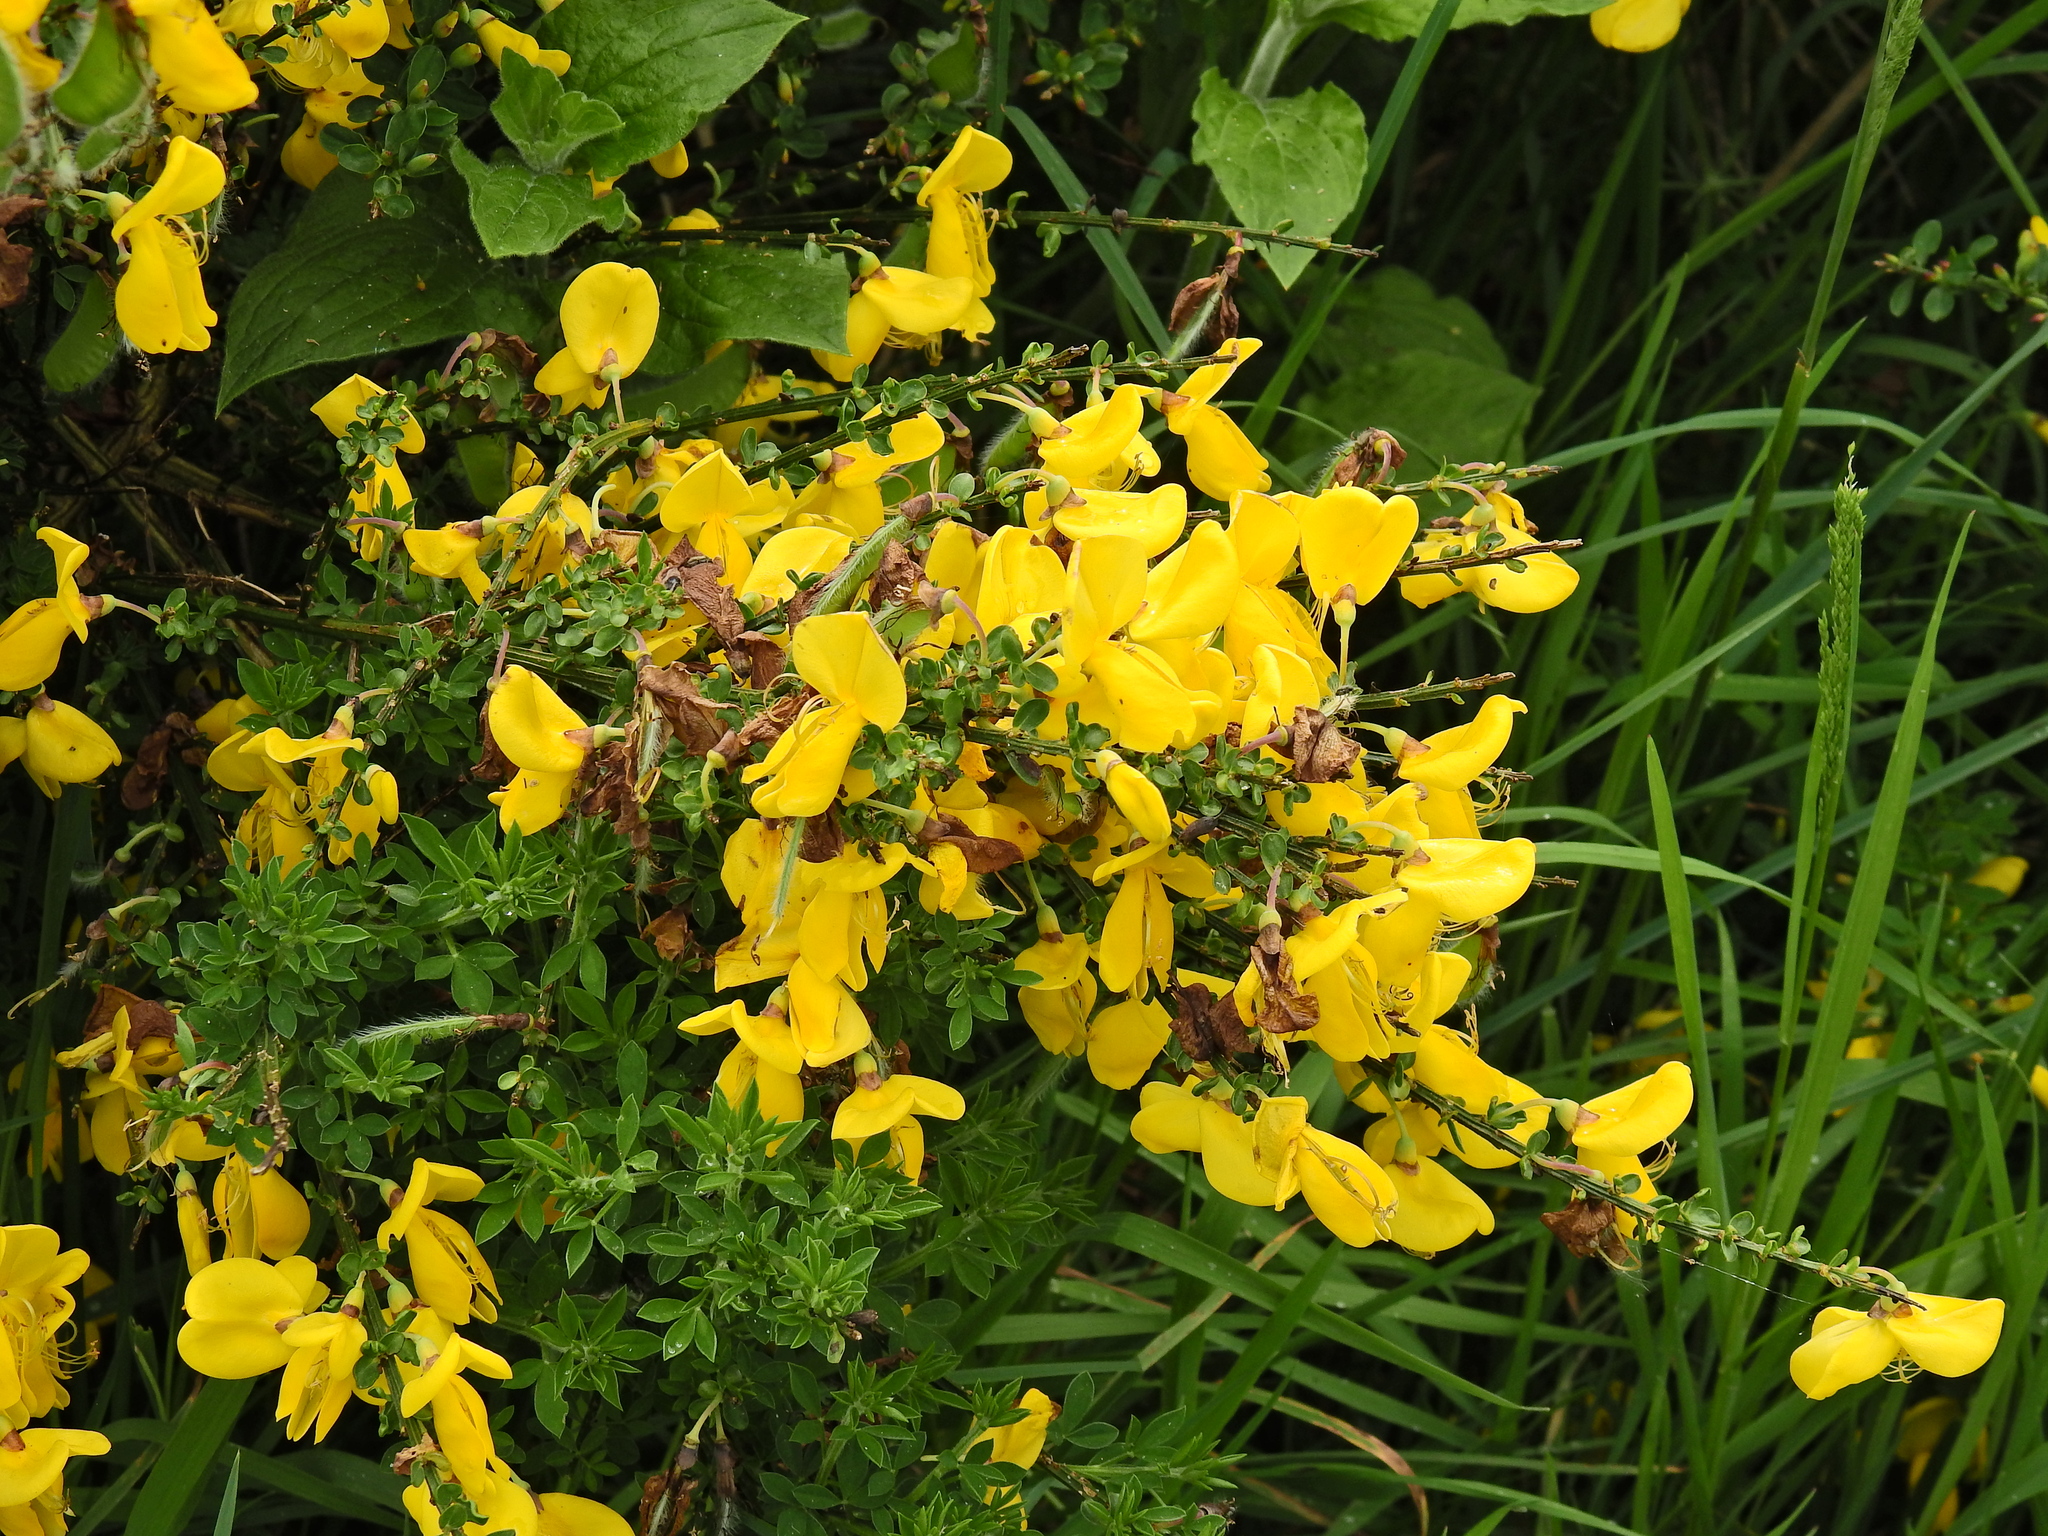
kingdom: Plantae
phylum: Tracheophyta
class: Magnoliopsida
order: Fabales
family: Fabaceae
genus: Cytisus
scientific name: Cytisus scoparius
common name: Scotch broom
